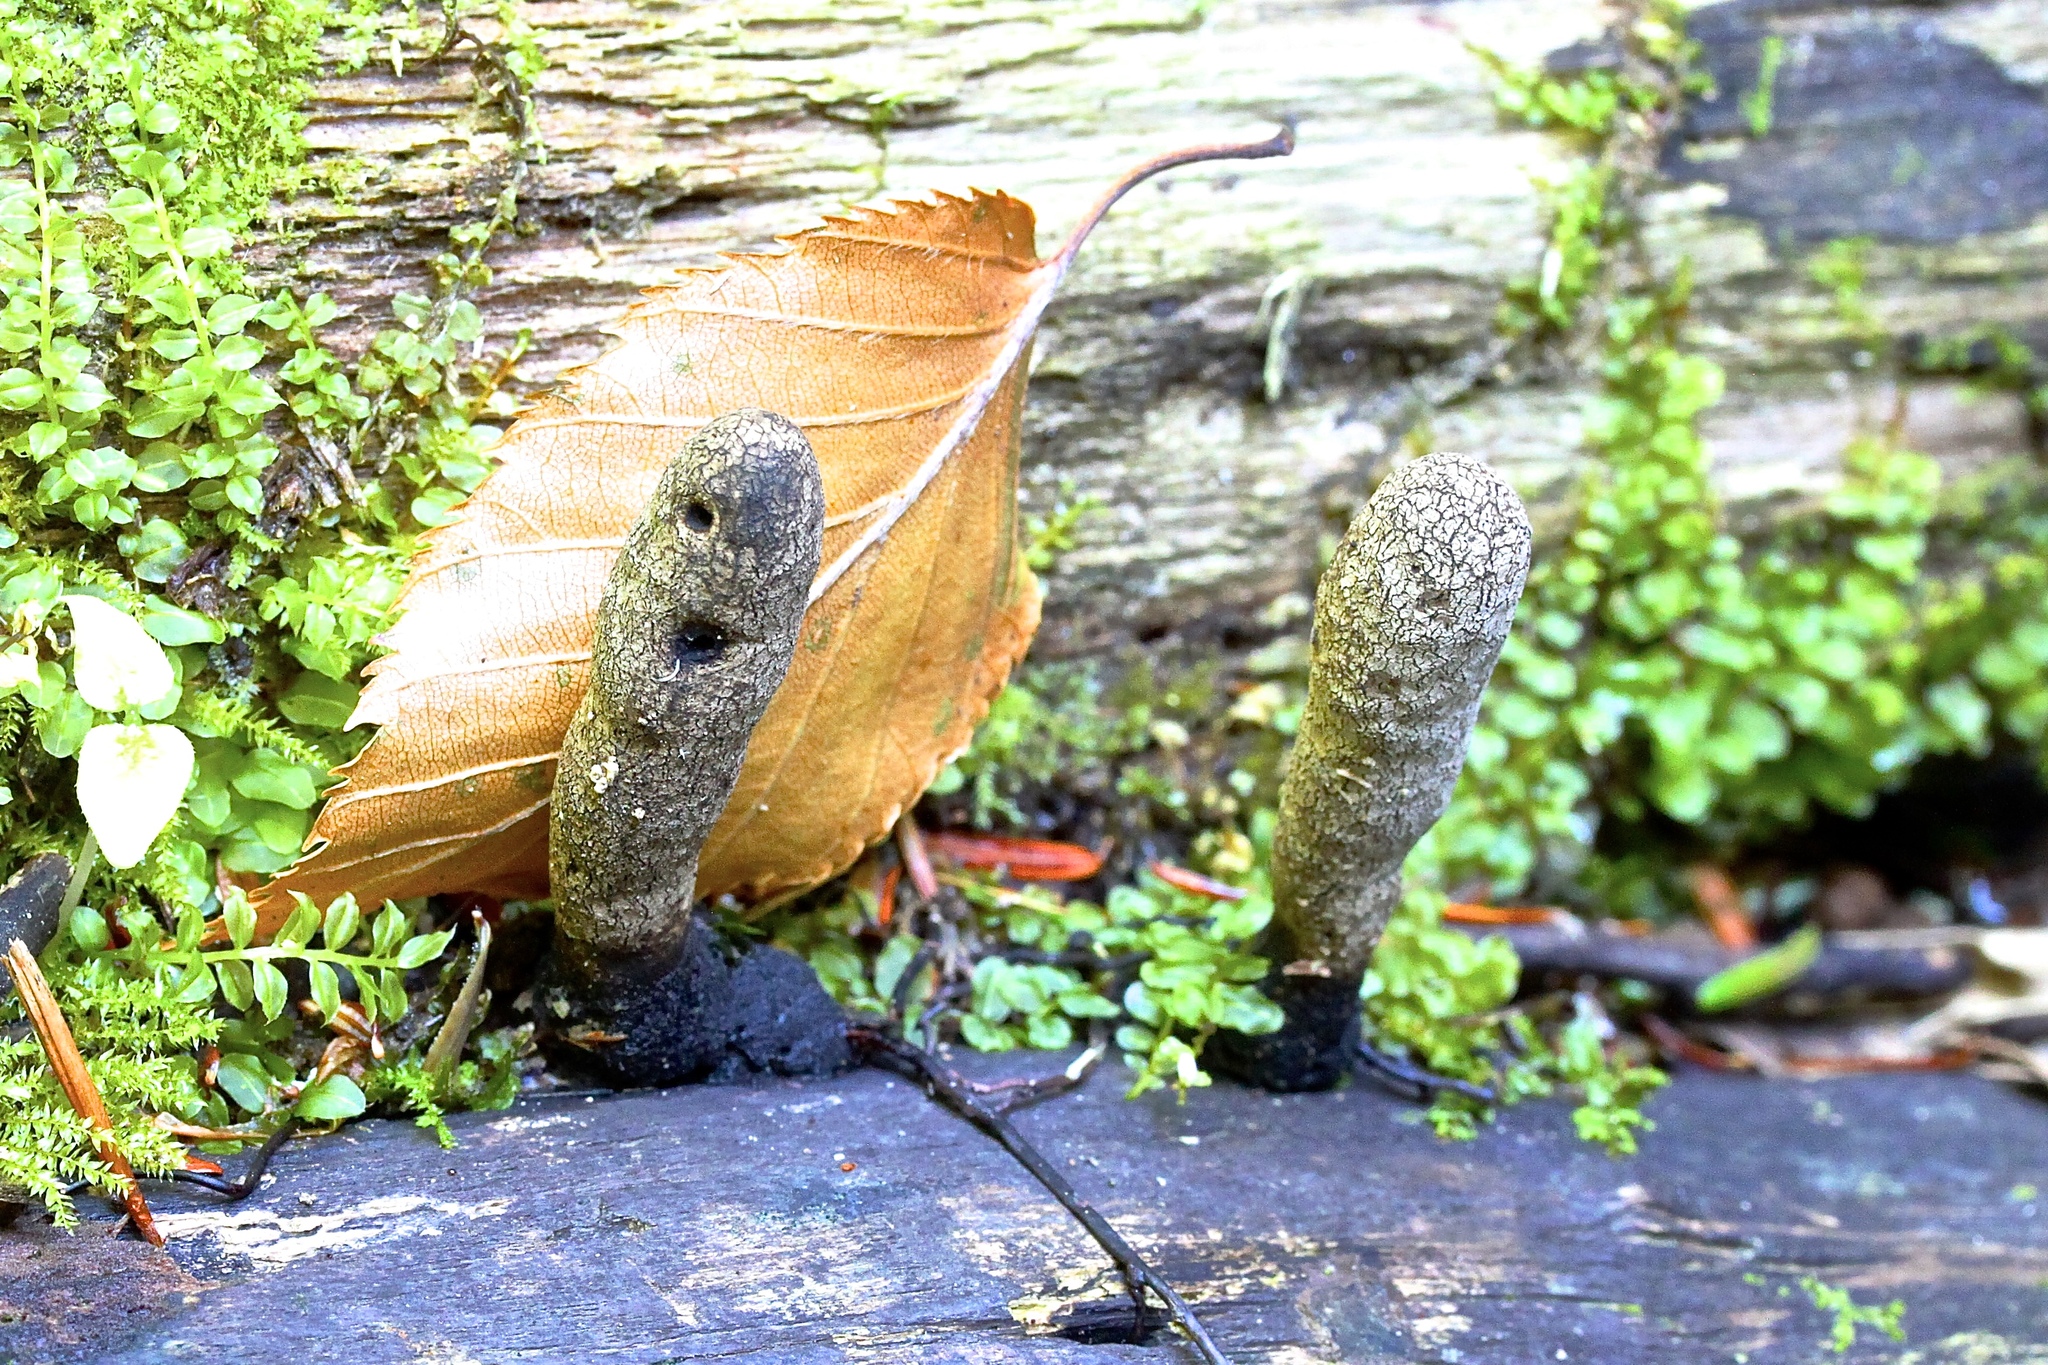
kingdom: Fungi
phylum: Ascomycota
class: Sordariomycetes
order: Xylariales
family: Xylariaceae
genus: Xylaria
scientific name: Xylaria longipes
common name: Dead moll's fingers
